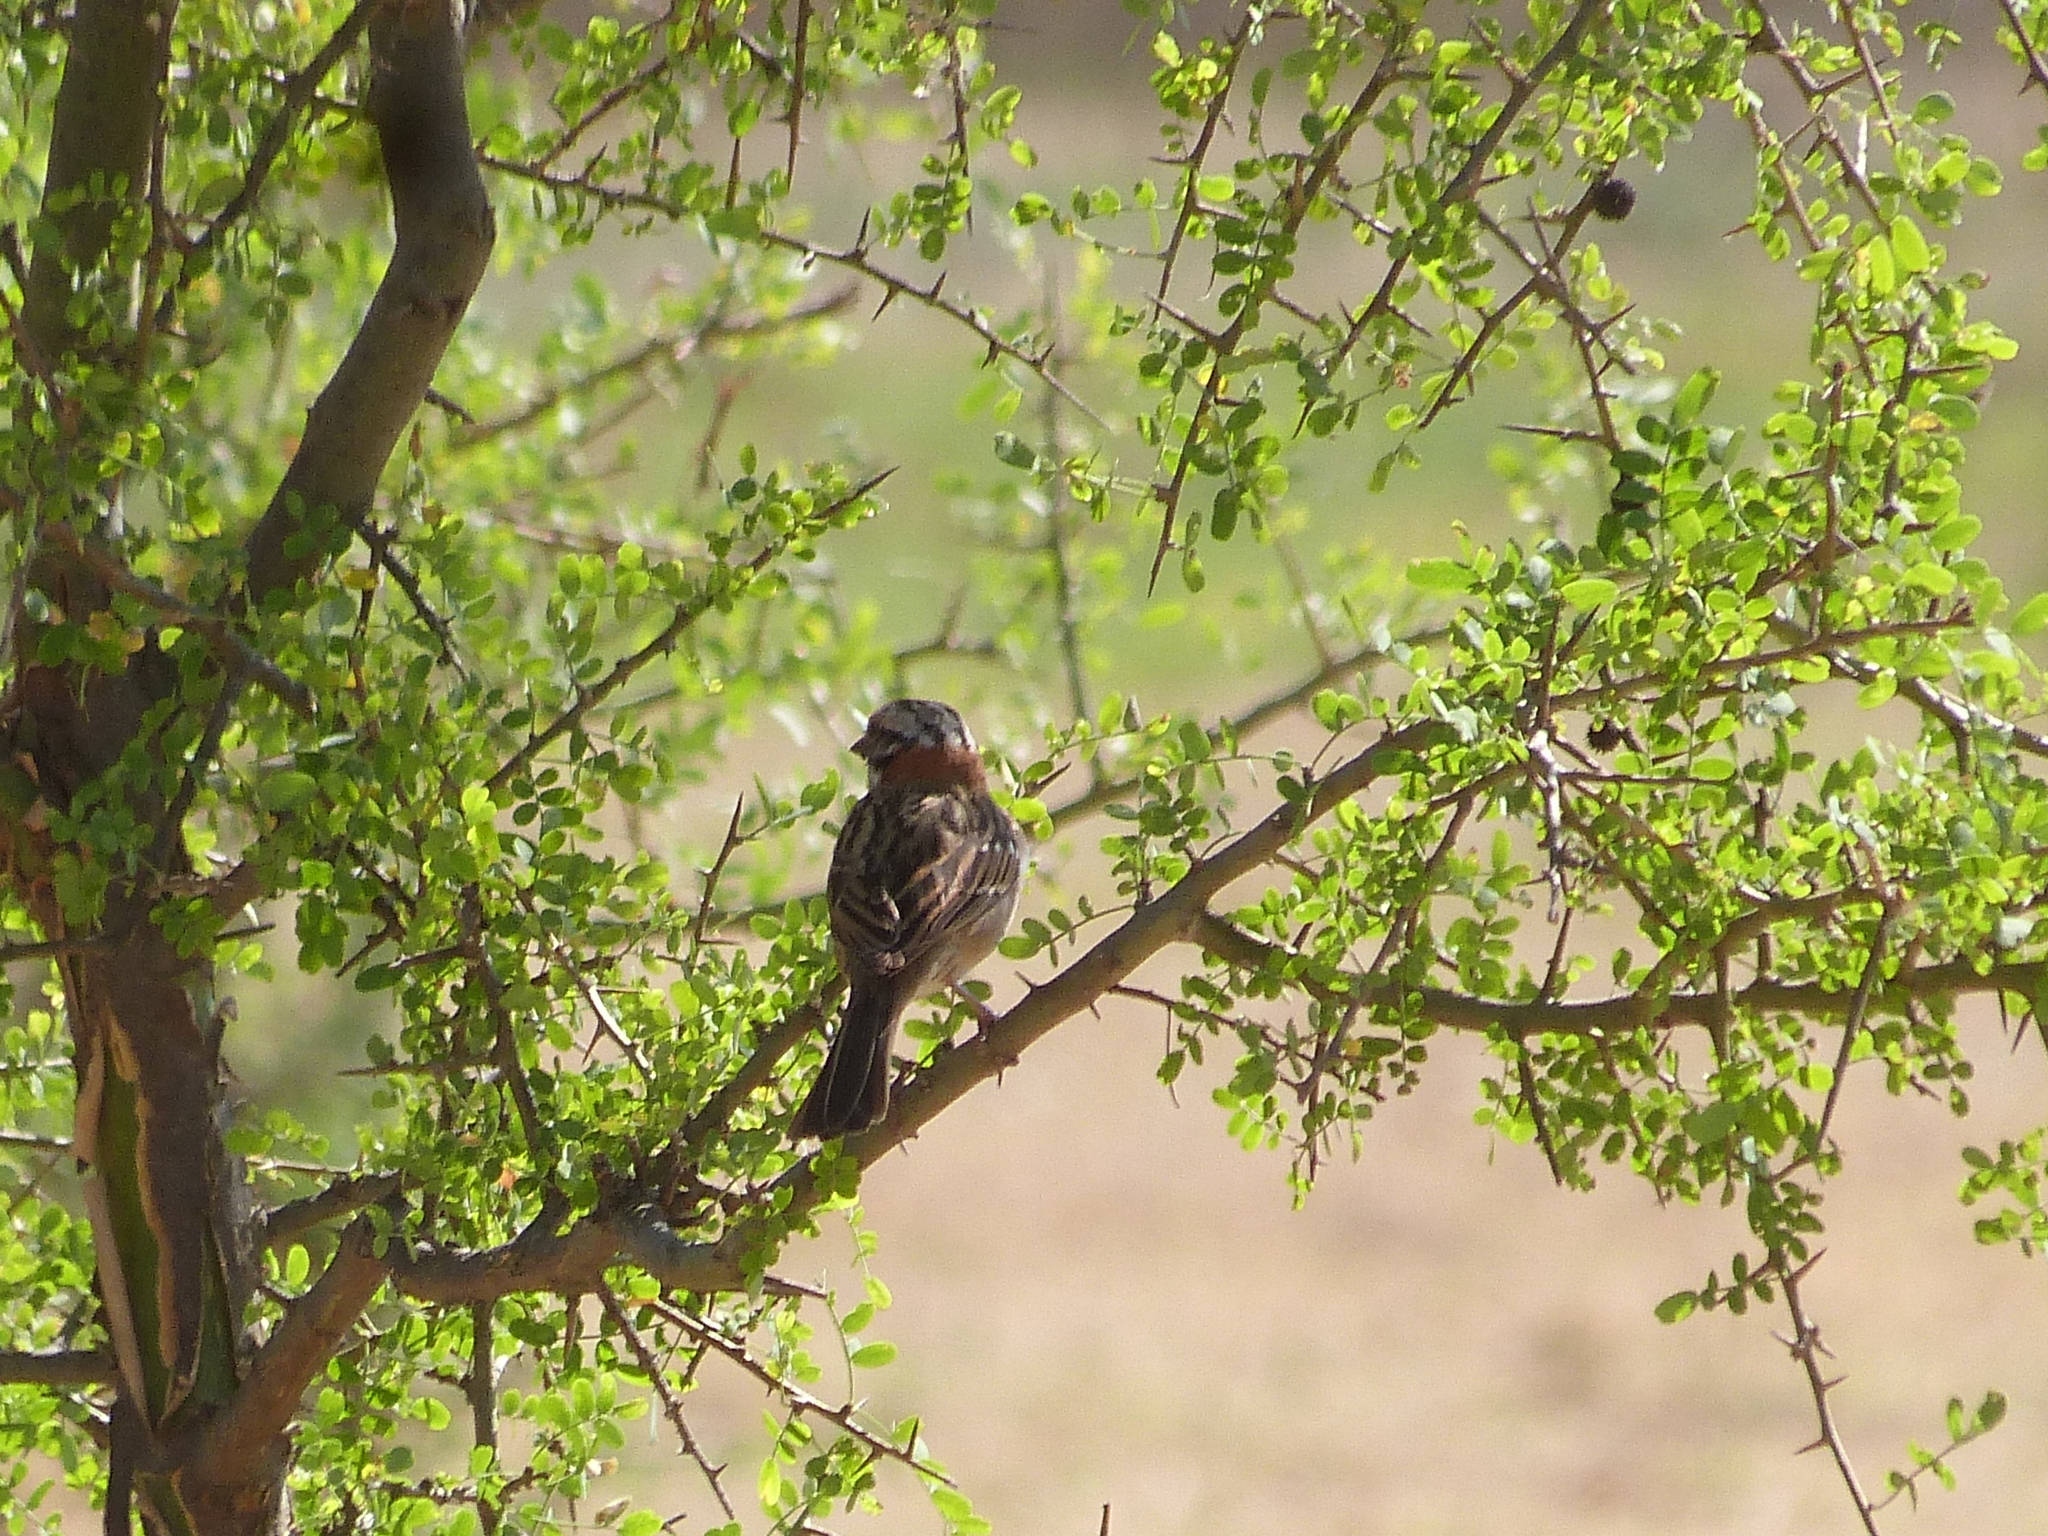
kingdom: Animalia
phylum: Chordata
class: Aves
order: Passeriformes
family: Passerellidae
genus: Zonotrichia
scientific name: Zonotrichia capensis
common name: Rufous-collared sparrow
